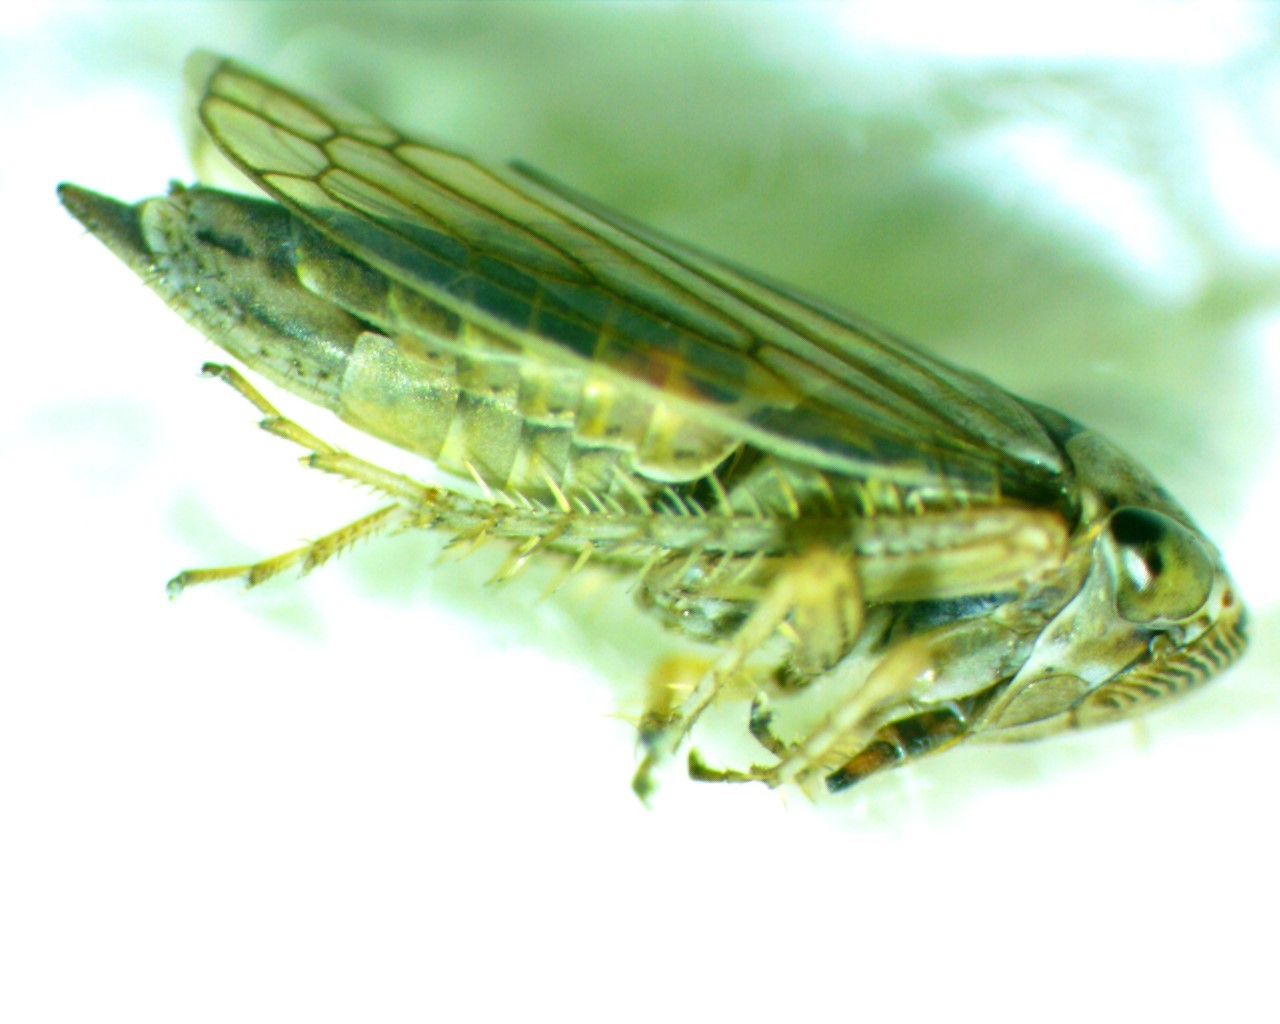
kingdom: Animalia
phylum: Arthropoda
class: Insecta
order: Hemiptera
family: Cicadellidae
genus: Exitianus
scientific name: Exitianus exitiosus
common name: Gray lawn leafhopper
